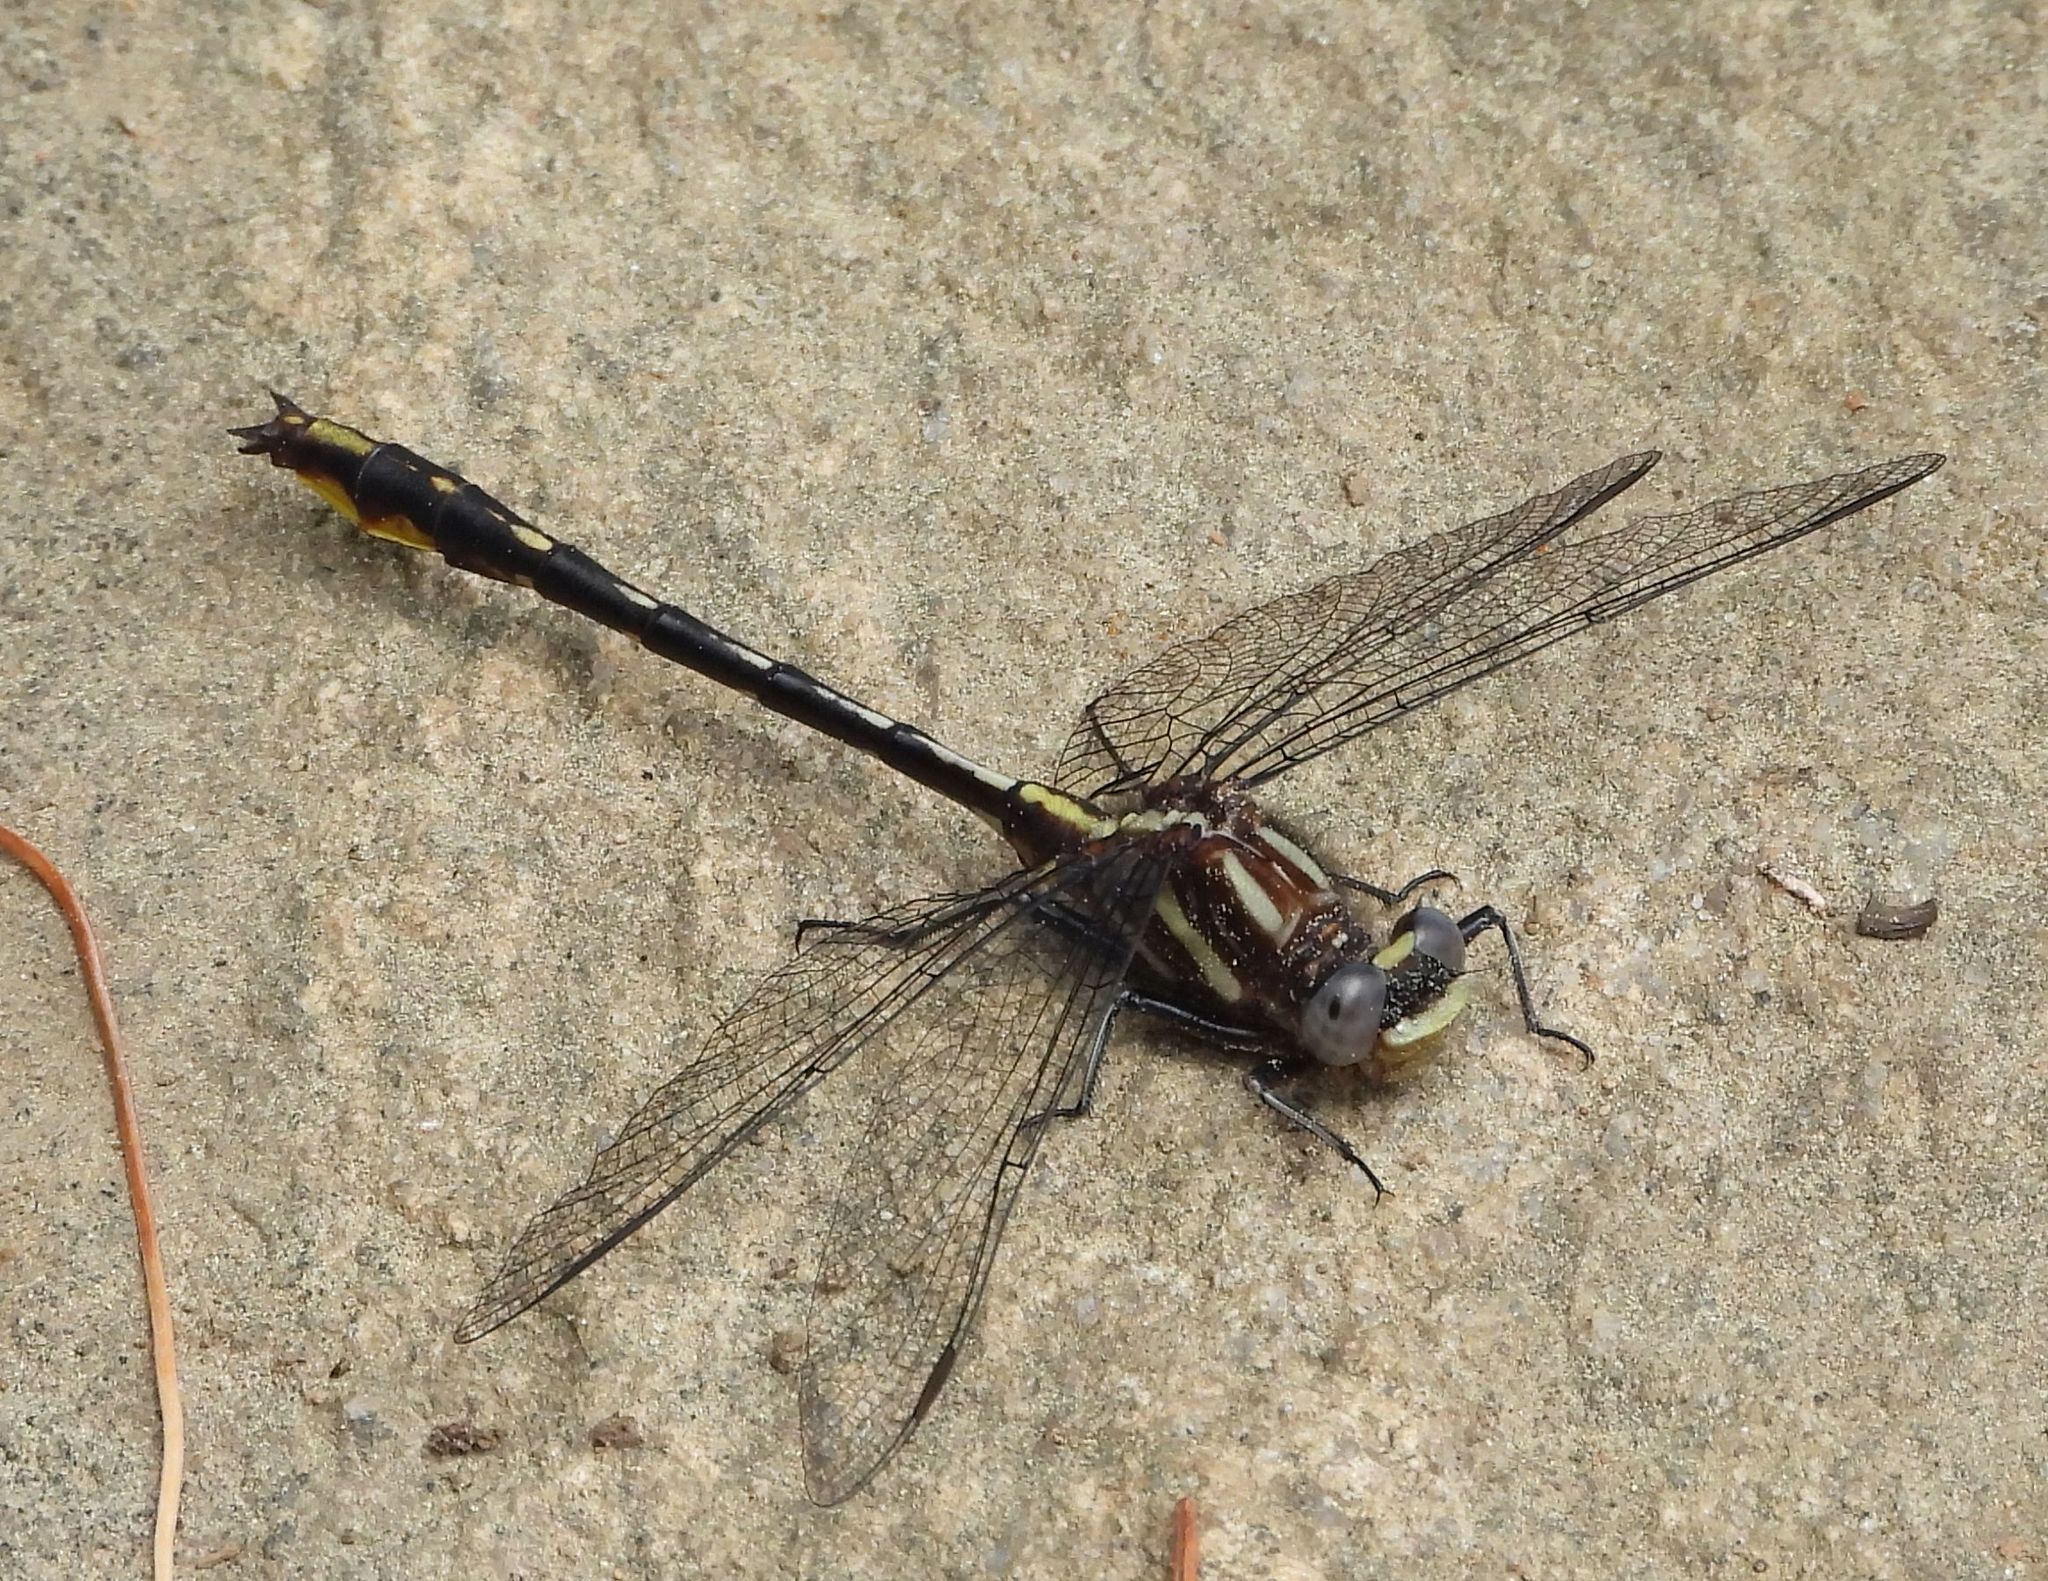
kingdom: Animalia
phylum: Arthropoda
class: Insecta
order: Odonata
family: Gomphidae
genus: Phanogomphus
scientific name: Phanogomphus exilis
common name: Lancet clubtail
